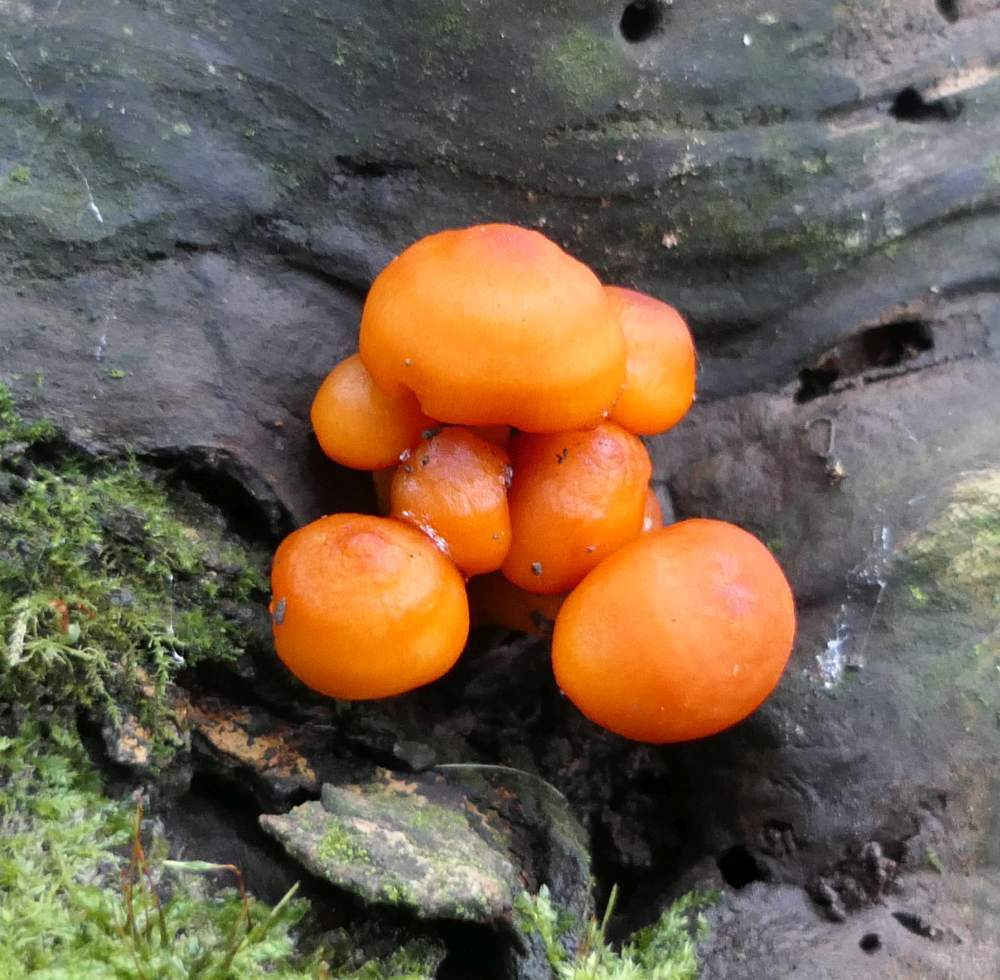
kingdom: Fungi
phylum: Basidiomycota
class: Agaricomycetes
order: Agaricales
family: Mycenaceae
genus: Mycena
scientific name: Mycena leaiana
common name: Orange mycena
